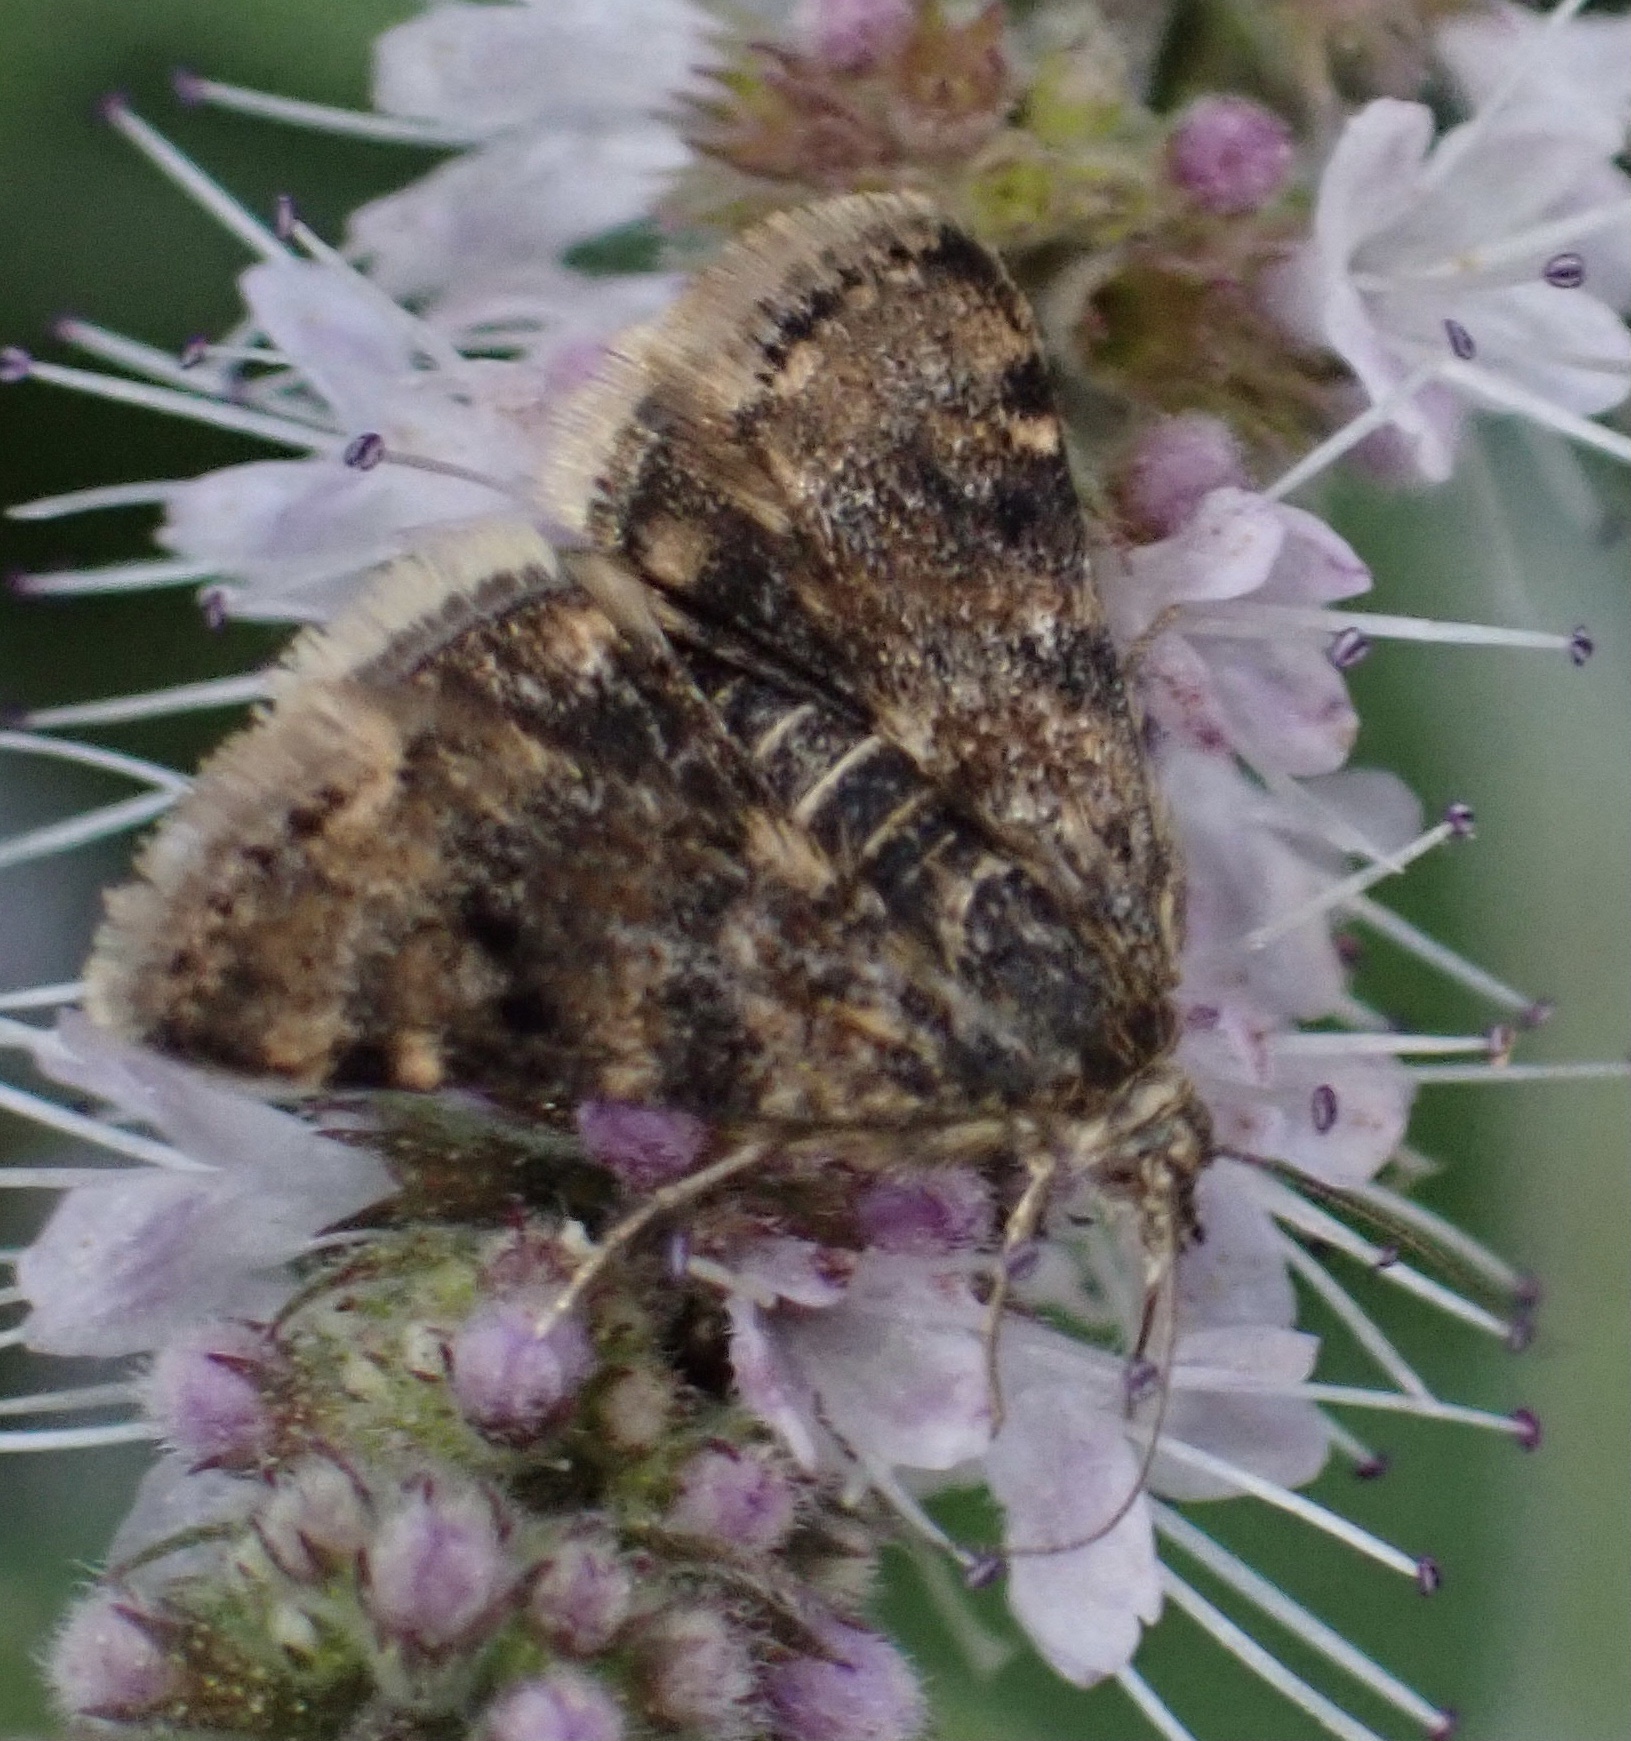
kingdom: Animalia
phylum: Arthropoda
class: Insecta
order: Lepidoptera
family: Crambidae
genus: Noctuelia
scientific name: Noctuelia Aporodes floralis
